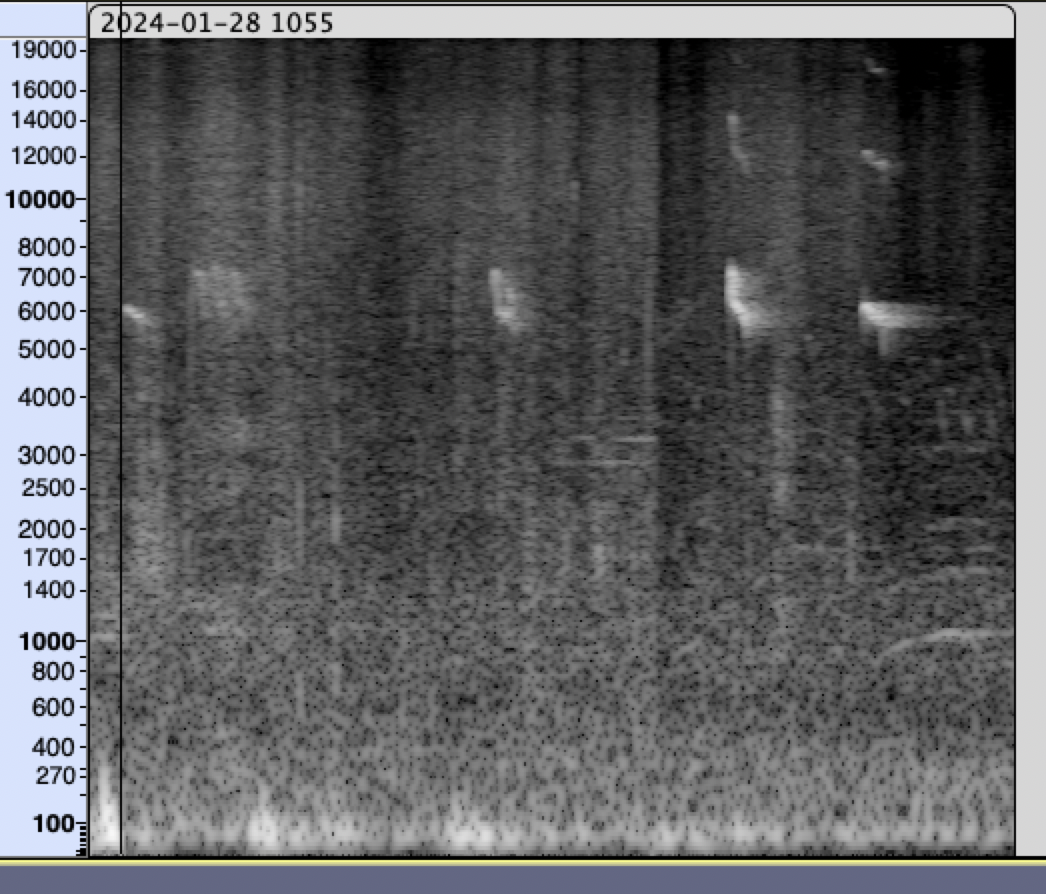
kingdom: Animalia
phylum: Chordata
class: Aves
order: Coraciiformes
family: Alcedinidae
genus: Alcedo
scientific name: Alcedo atthis
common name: Common kingfisher
